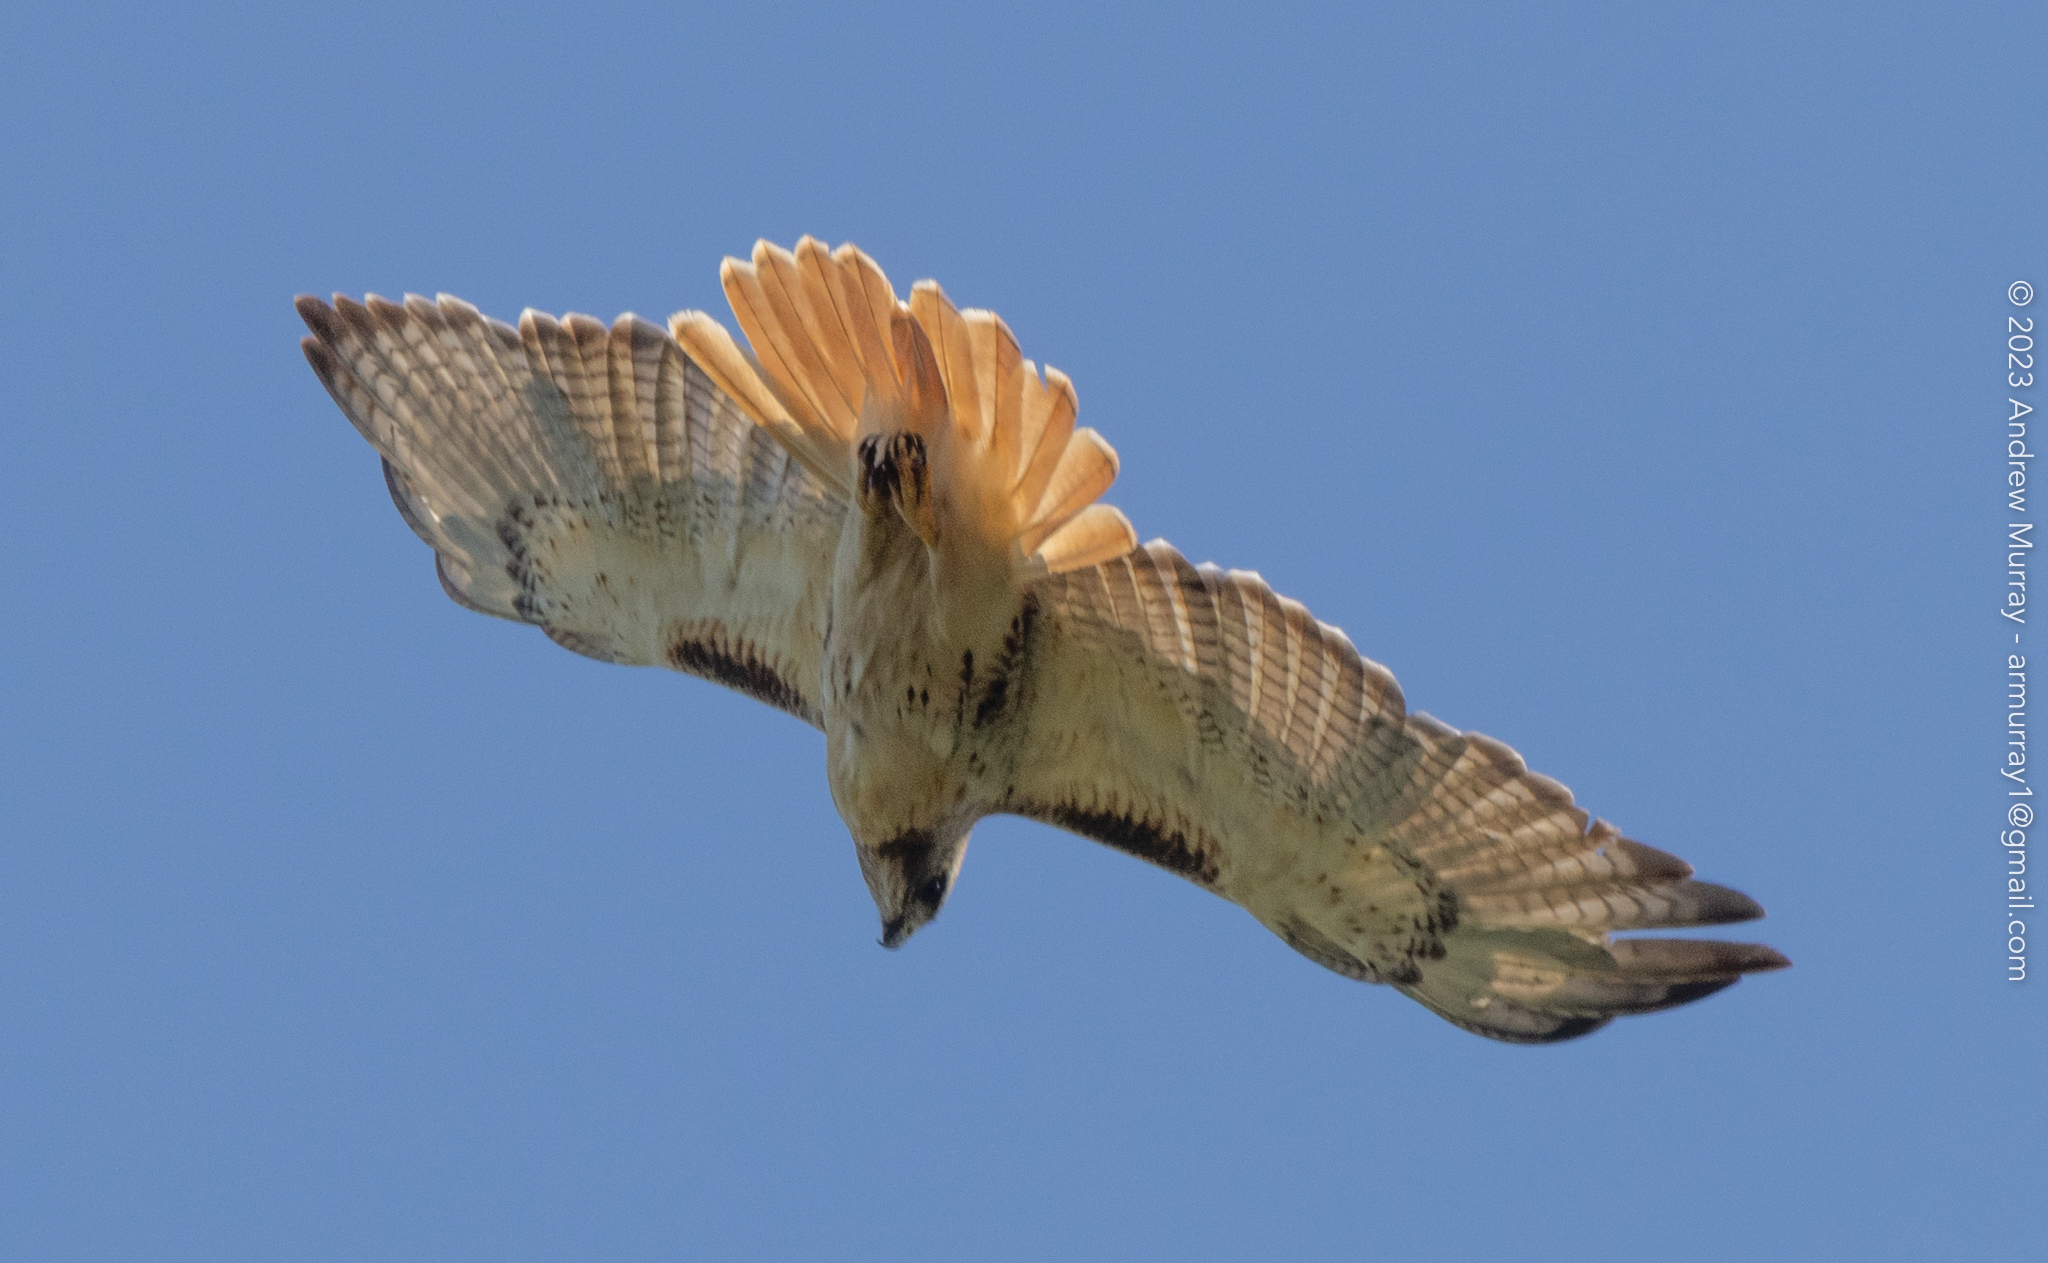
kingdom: Animalia
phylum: Chordata
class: Aves
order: Accipitriformes
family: Accipitridae
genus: Buteo
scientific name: Buteo jamaicensis
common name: Red-tailed hawk
